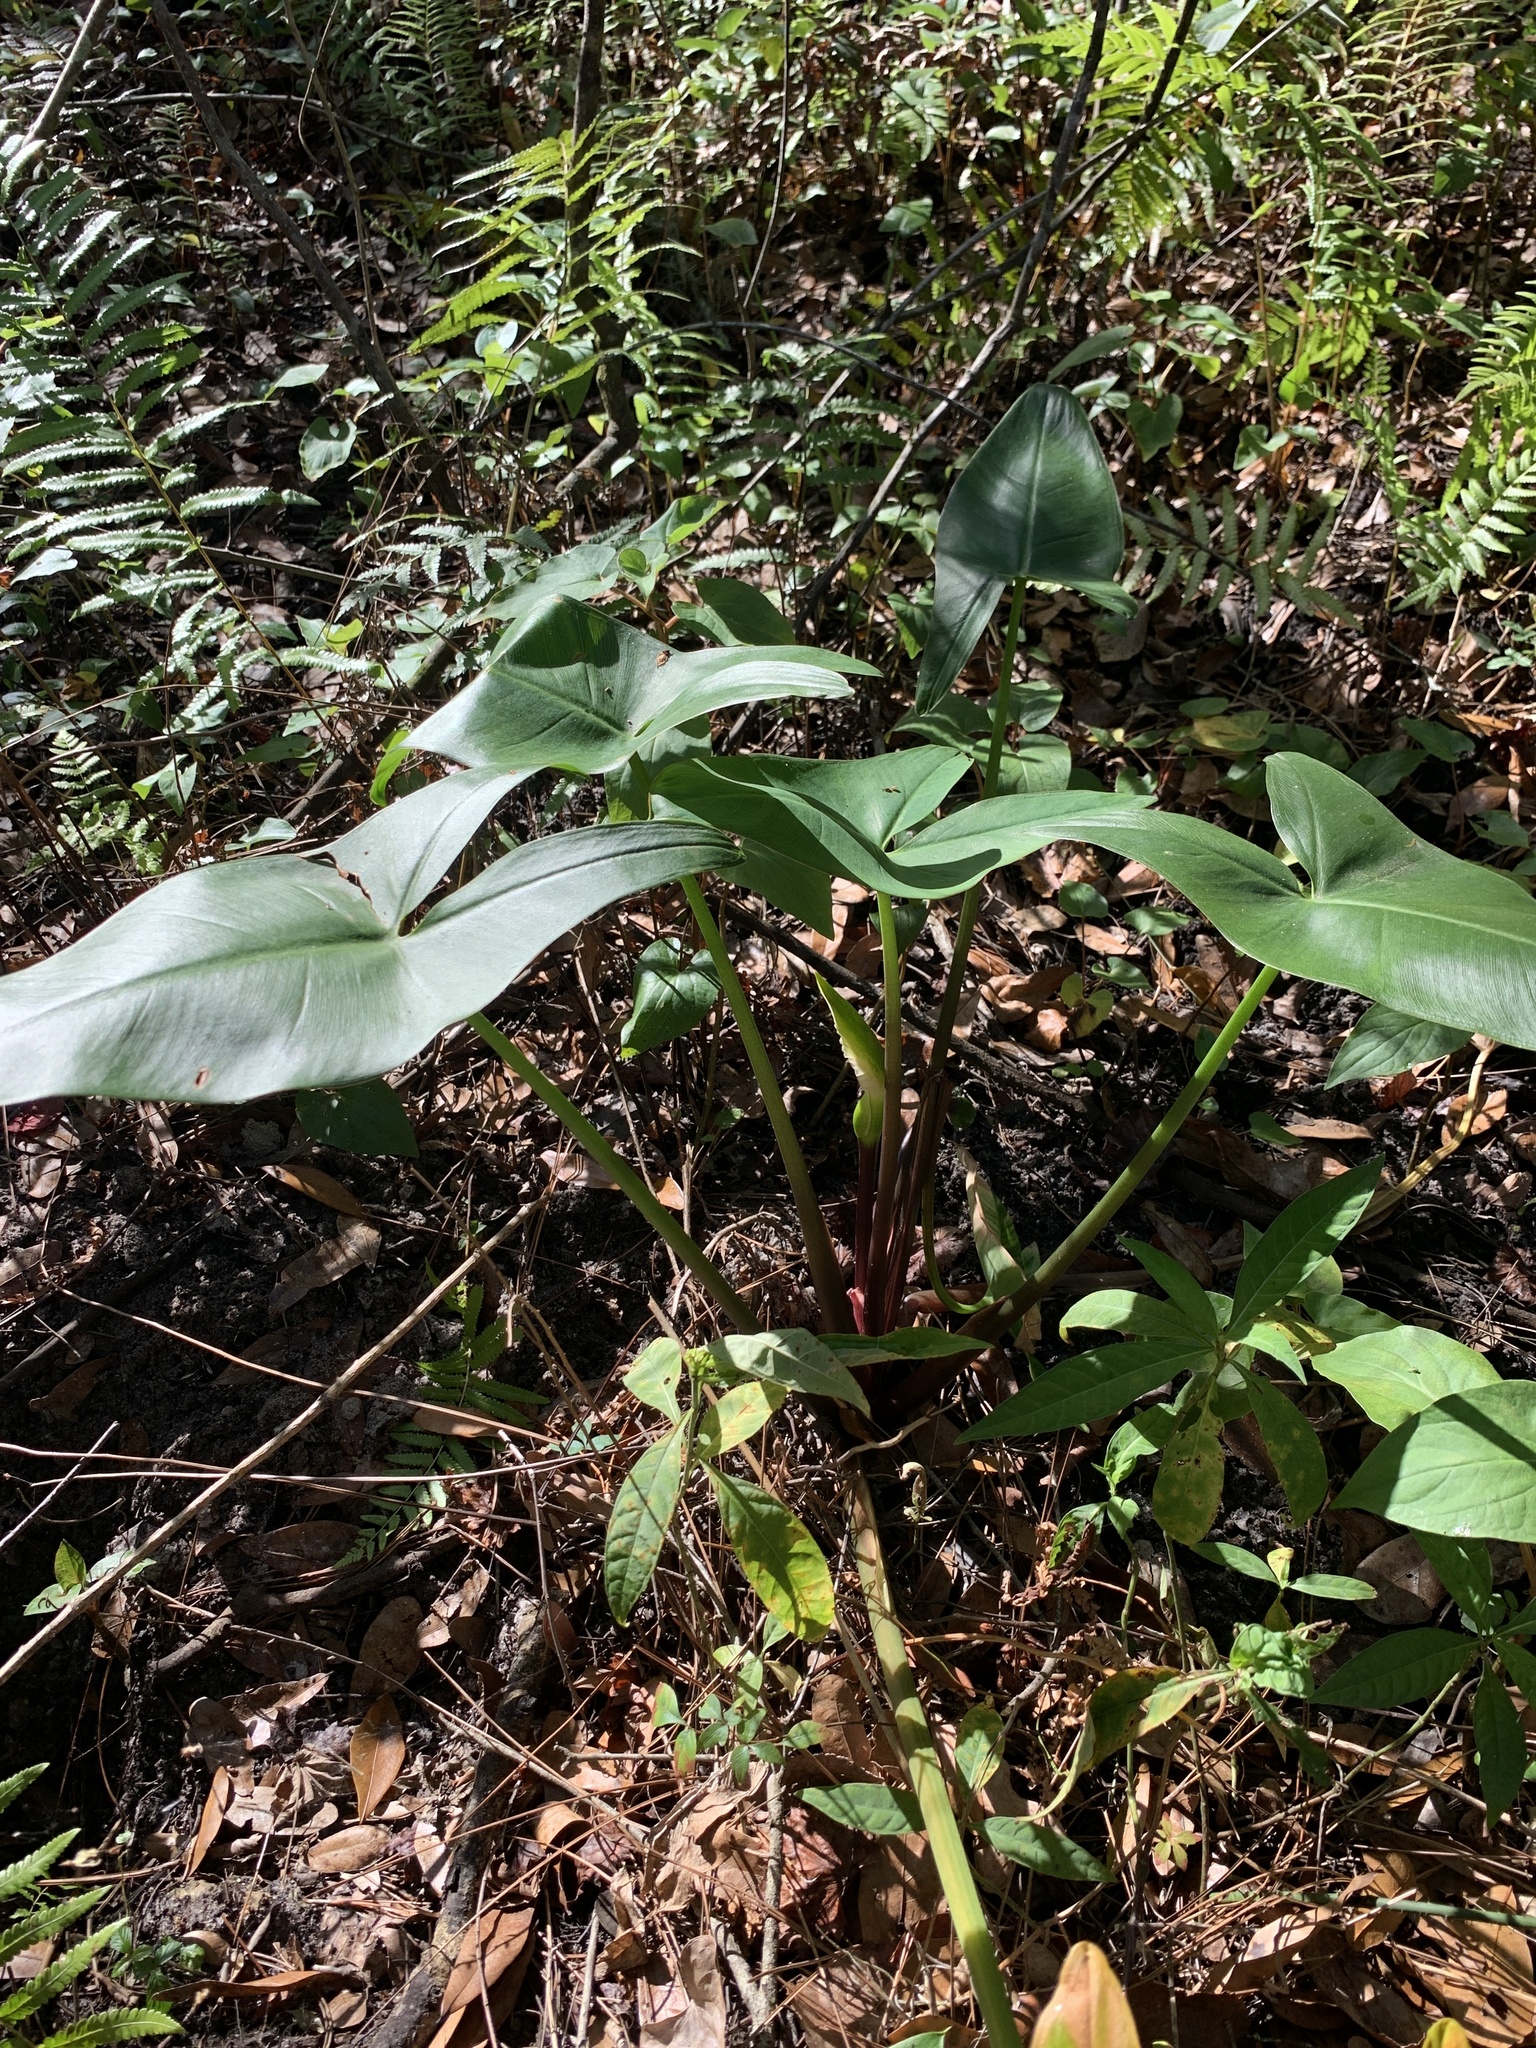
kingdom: Plantae
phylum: Tracheophyta
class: Liliopsida
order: Alismatales
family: Araceae
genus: Peltandra
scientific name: Peltandra virginica
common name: Arrow arum
